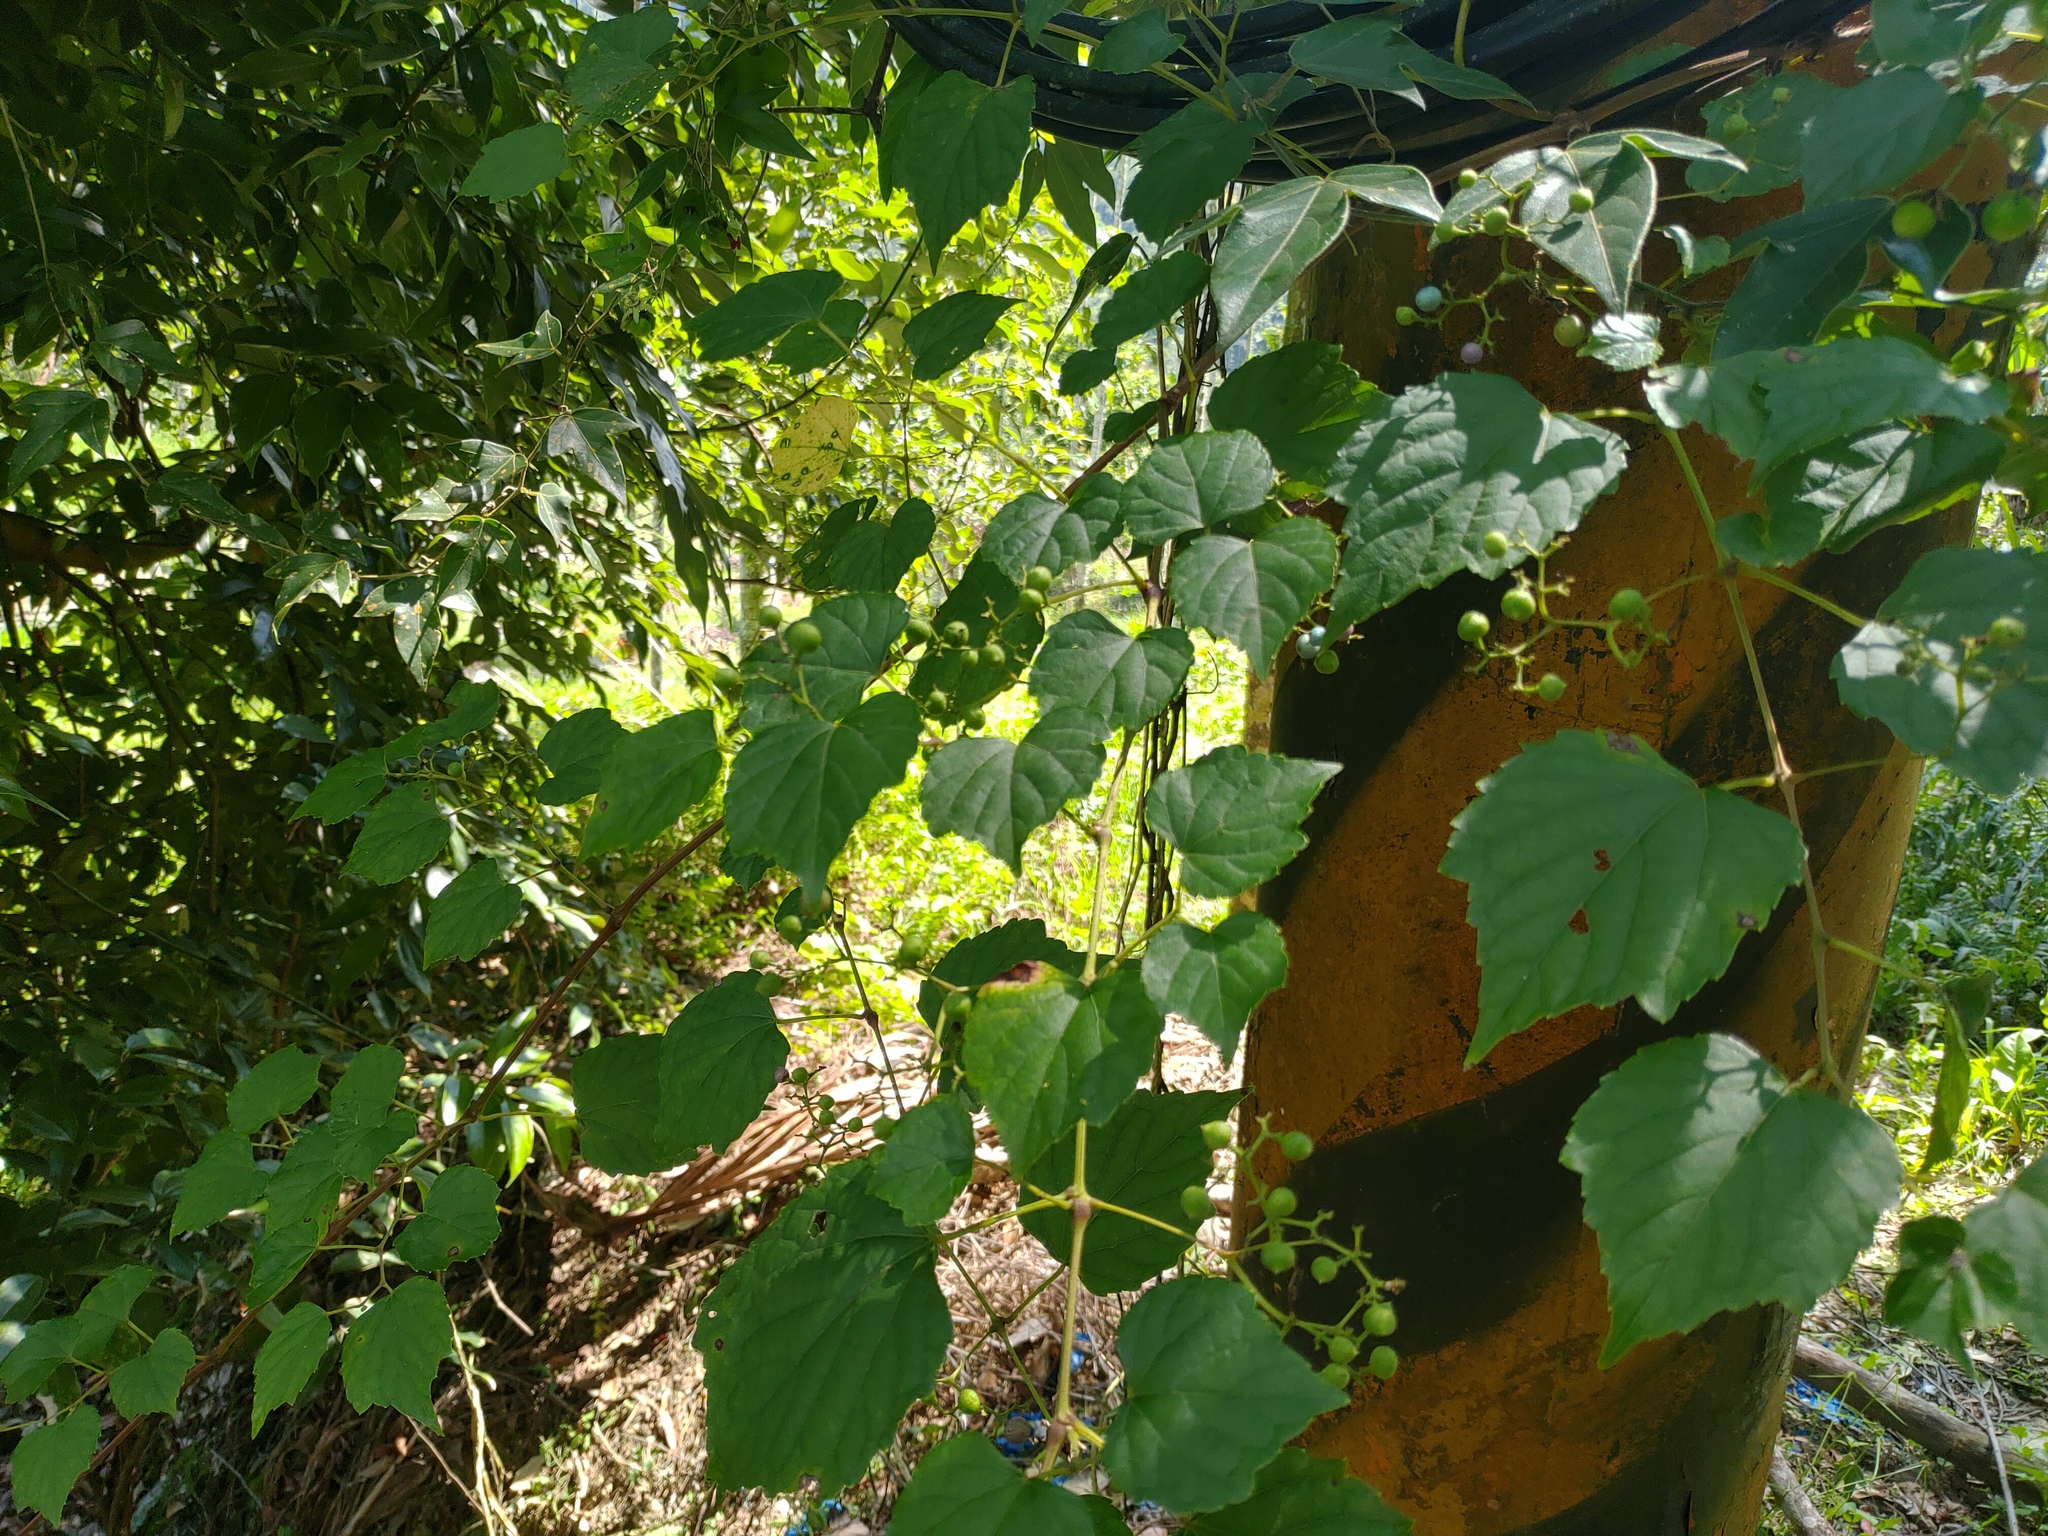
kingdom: Plantae
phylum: Tracheophyta
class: Magnoliopsida
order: Vitales
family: Vitaceae
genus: Ampelopsis
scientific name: Ampelopsis glandulosa
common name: Amur peppervine
